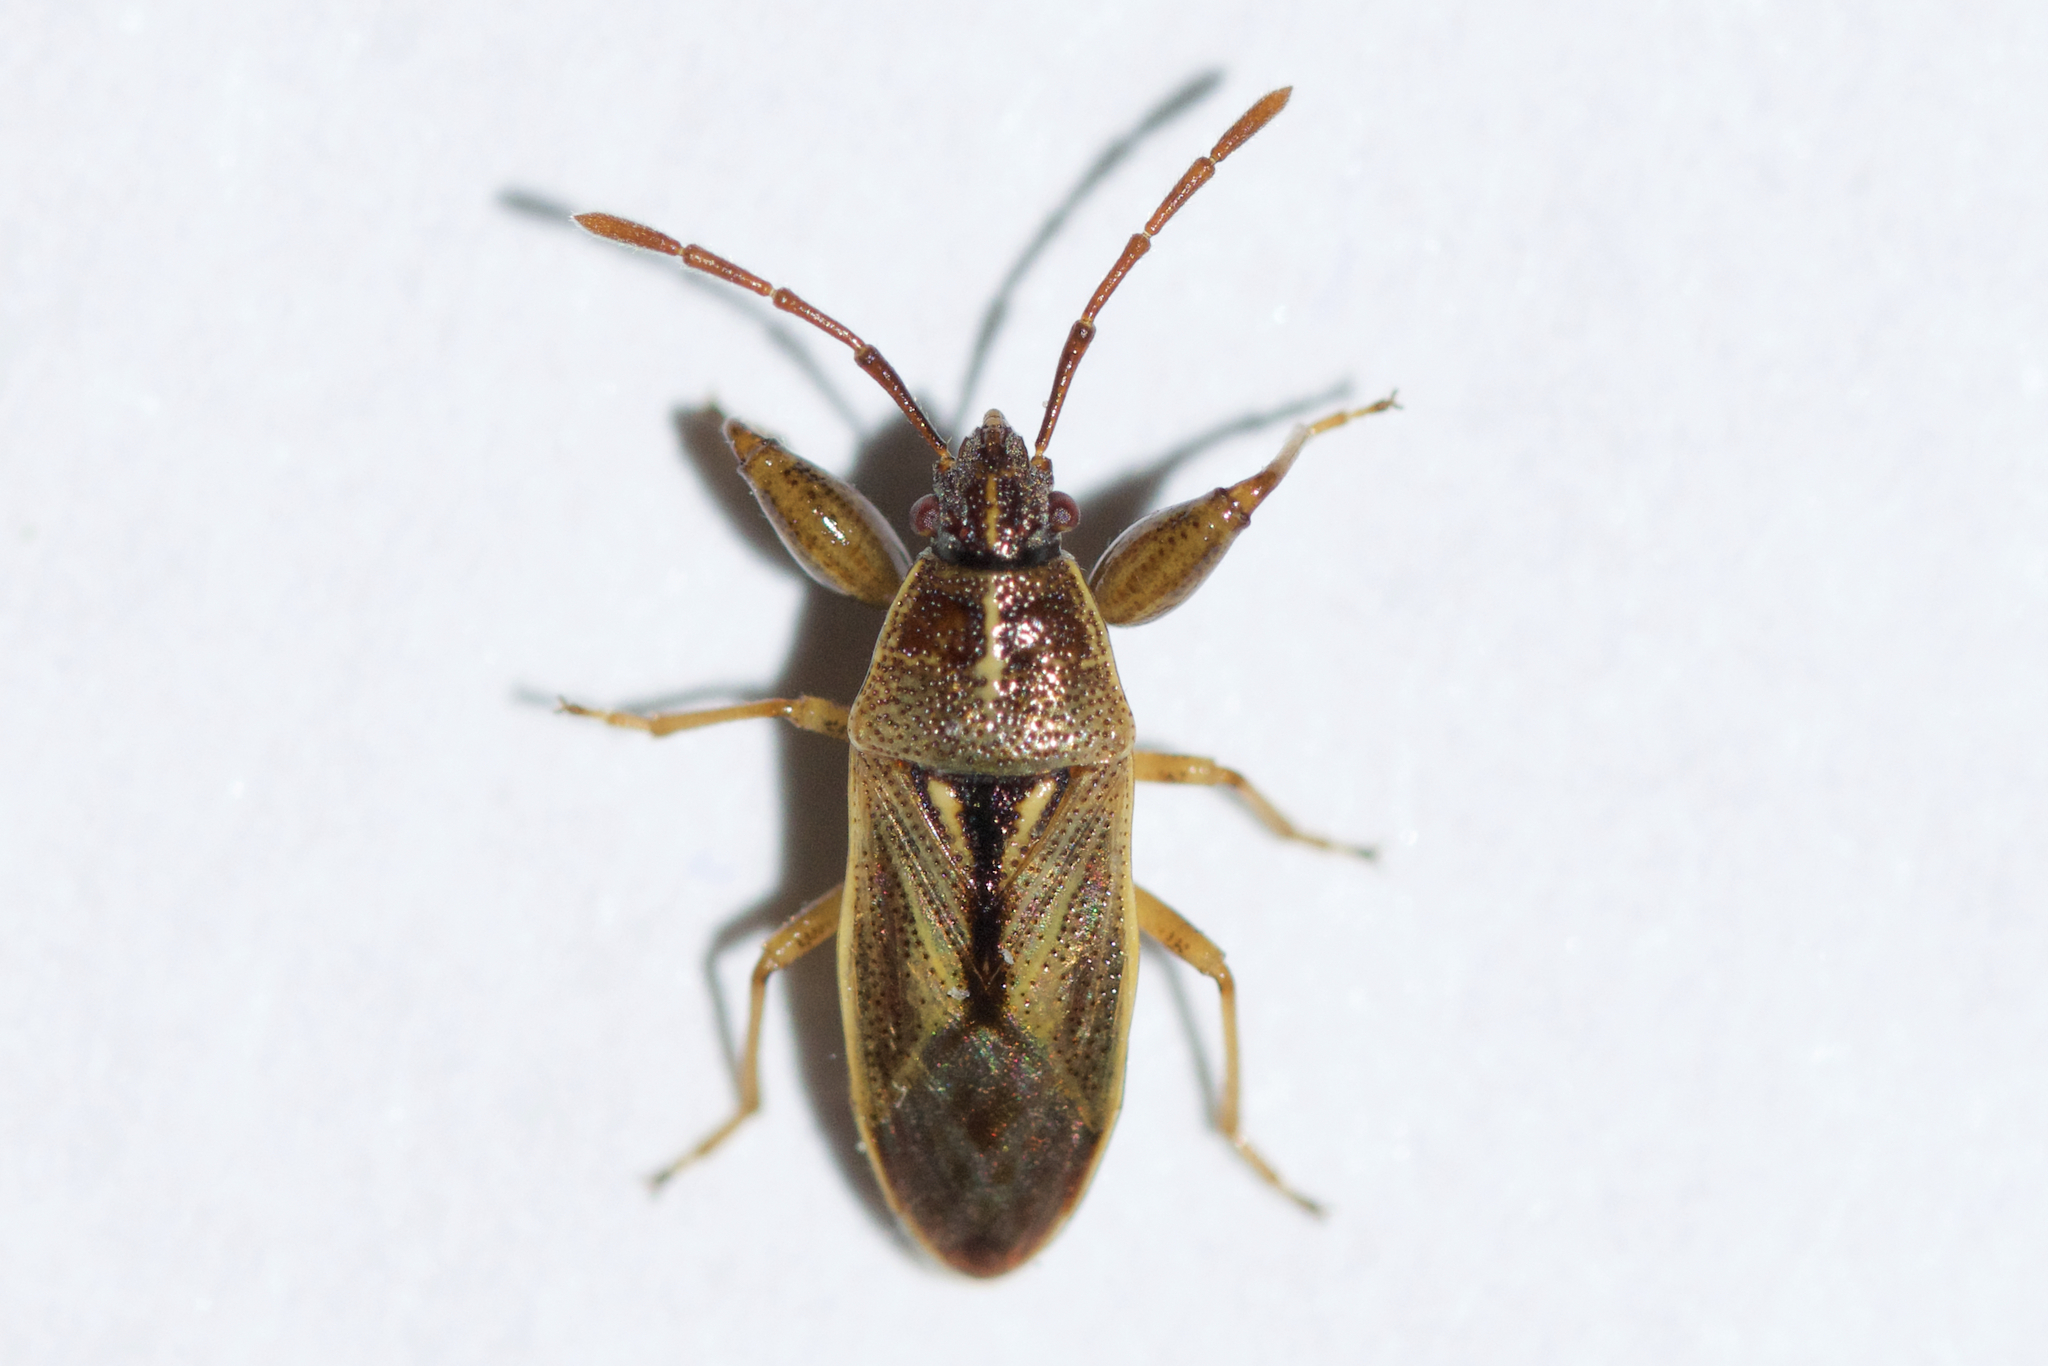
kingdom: Animalia
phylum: Arthropoda
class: Insecta
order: Hemiptera
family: Pachygronthidae
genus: Oedancala
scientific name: Oedancala dorsalis
